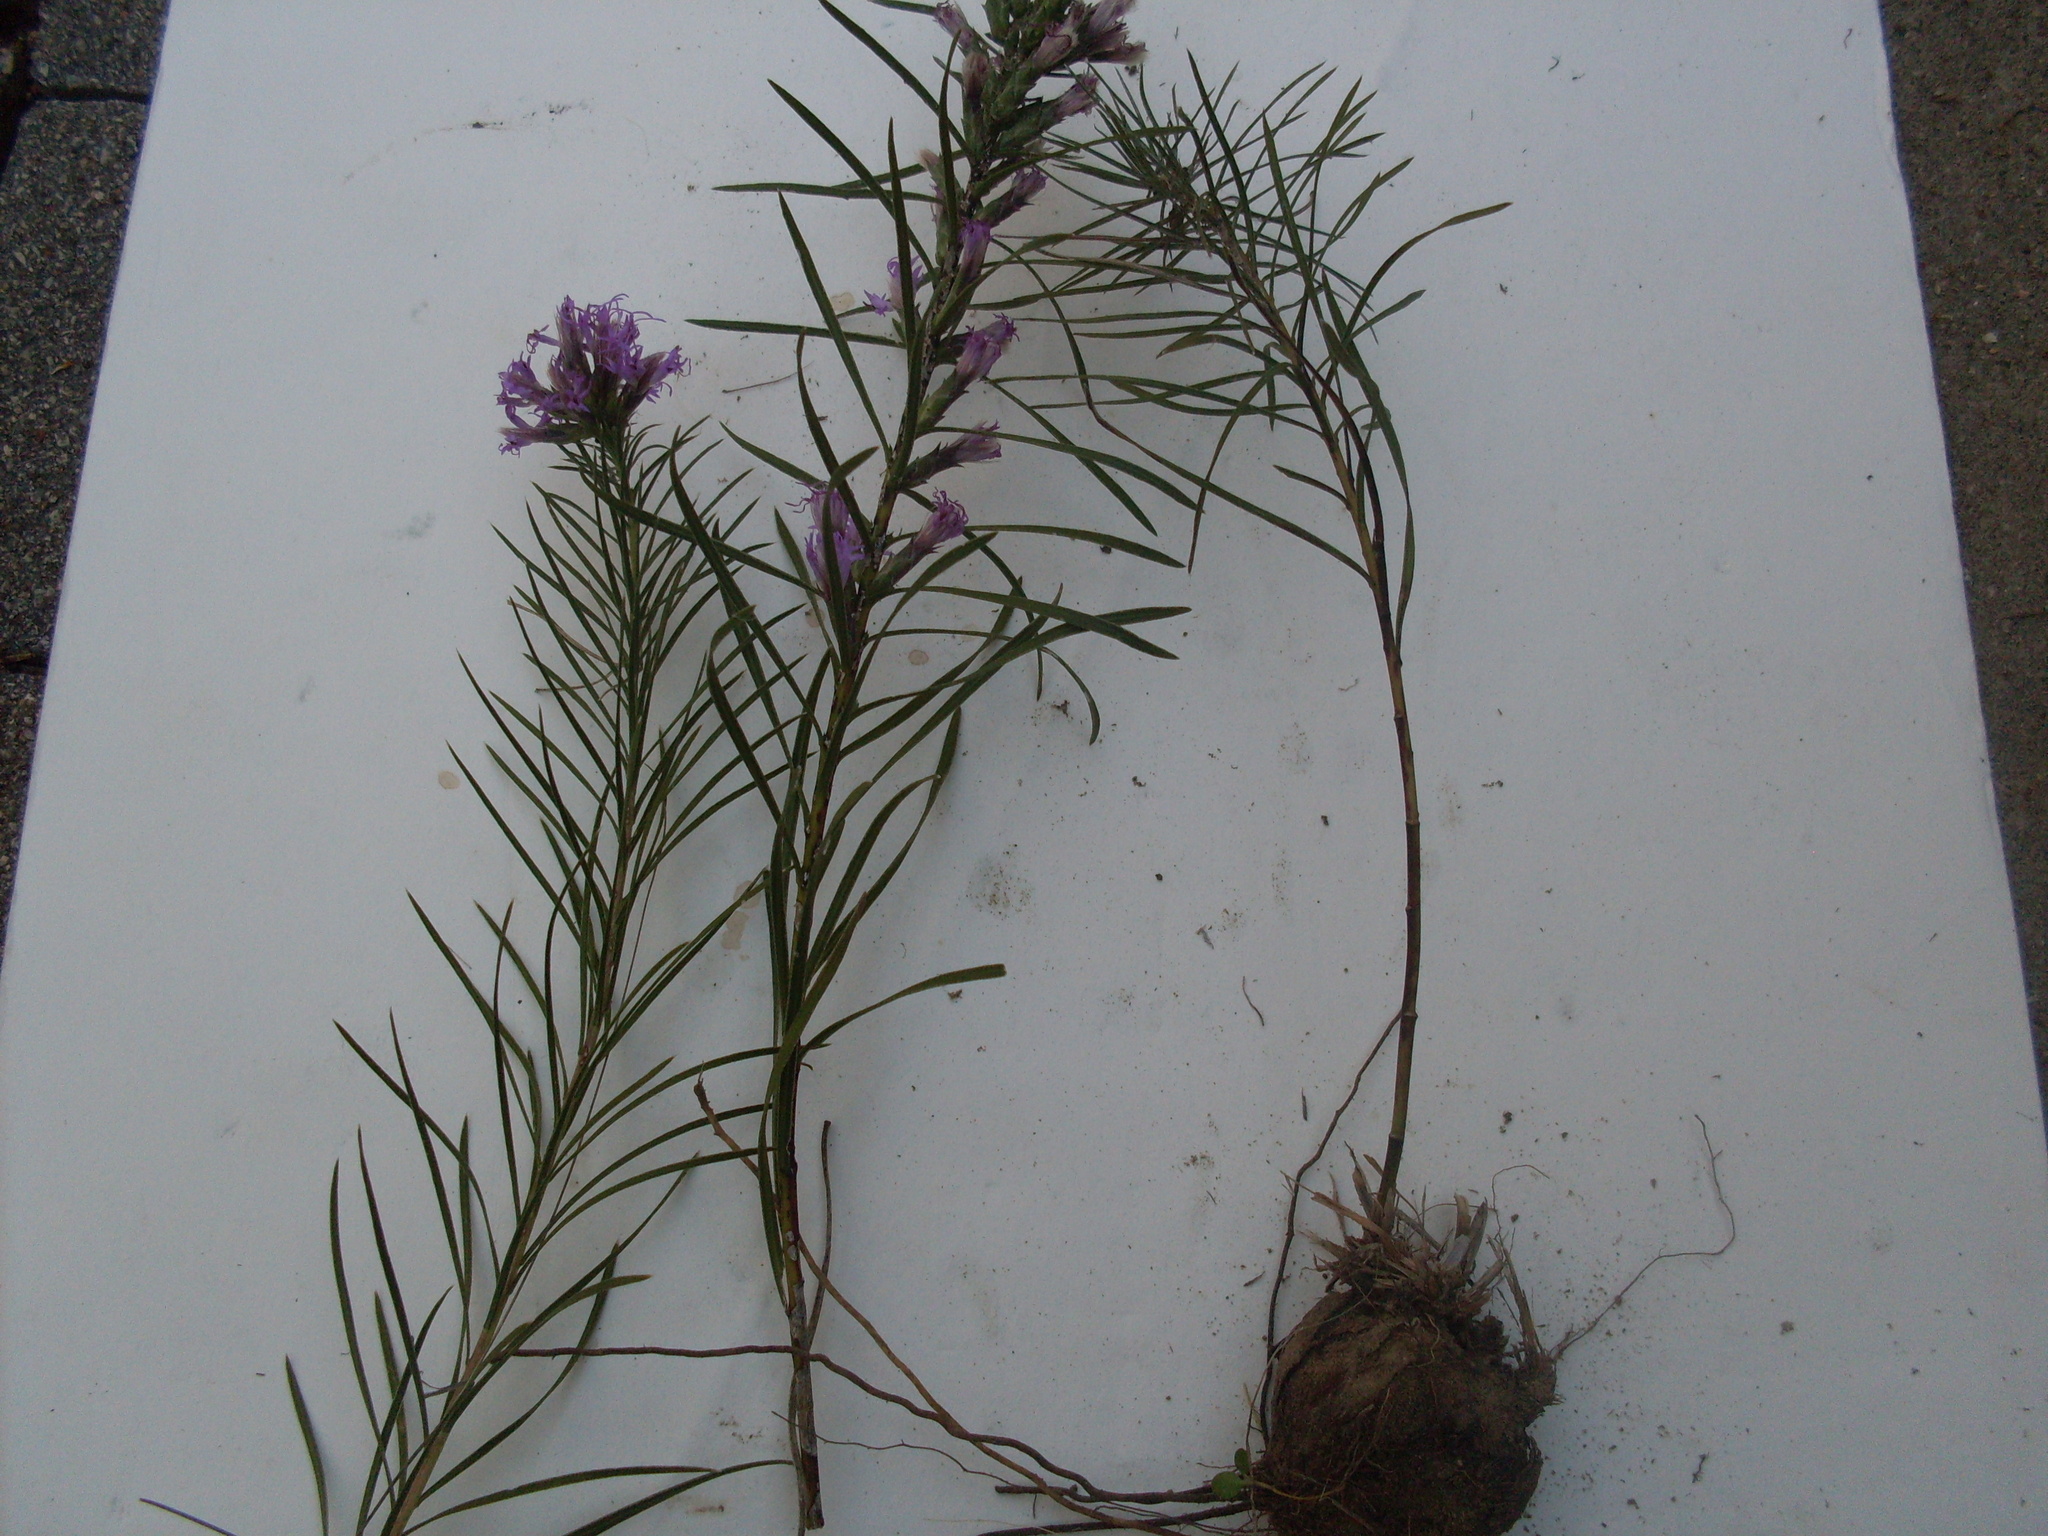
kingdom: Plantae
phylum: Tracheophyta
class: Magnoliopsida
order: Asterales
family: Asteraceae
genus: Liatris
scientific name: Liatris punctata
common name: Dotted gayfeather
